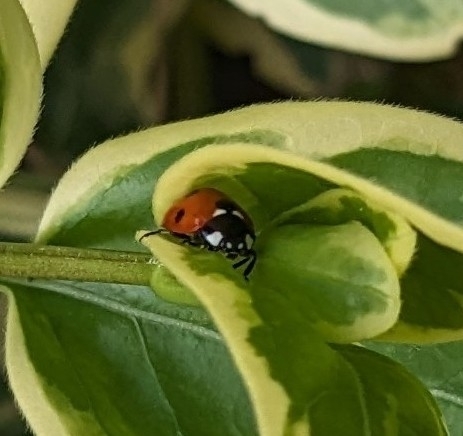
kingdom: Animalia
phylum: Arthropoda
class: Insecta
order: Coleoptera
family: Coccinellidae
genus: Coccinella
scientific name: Coccinella septempunctata
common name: Sevenspotted lady beetle
